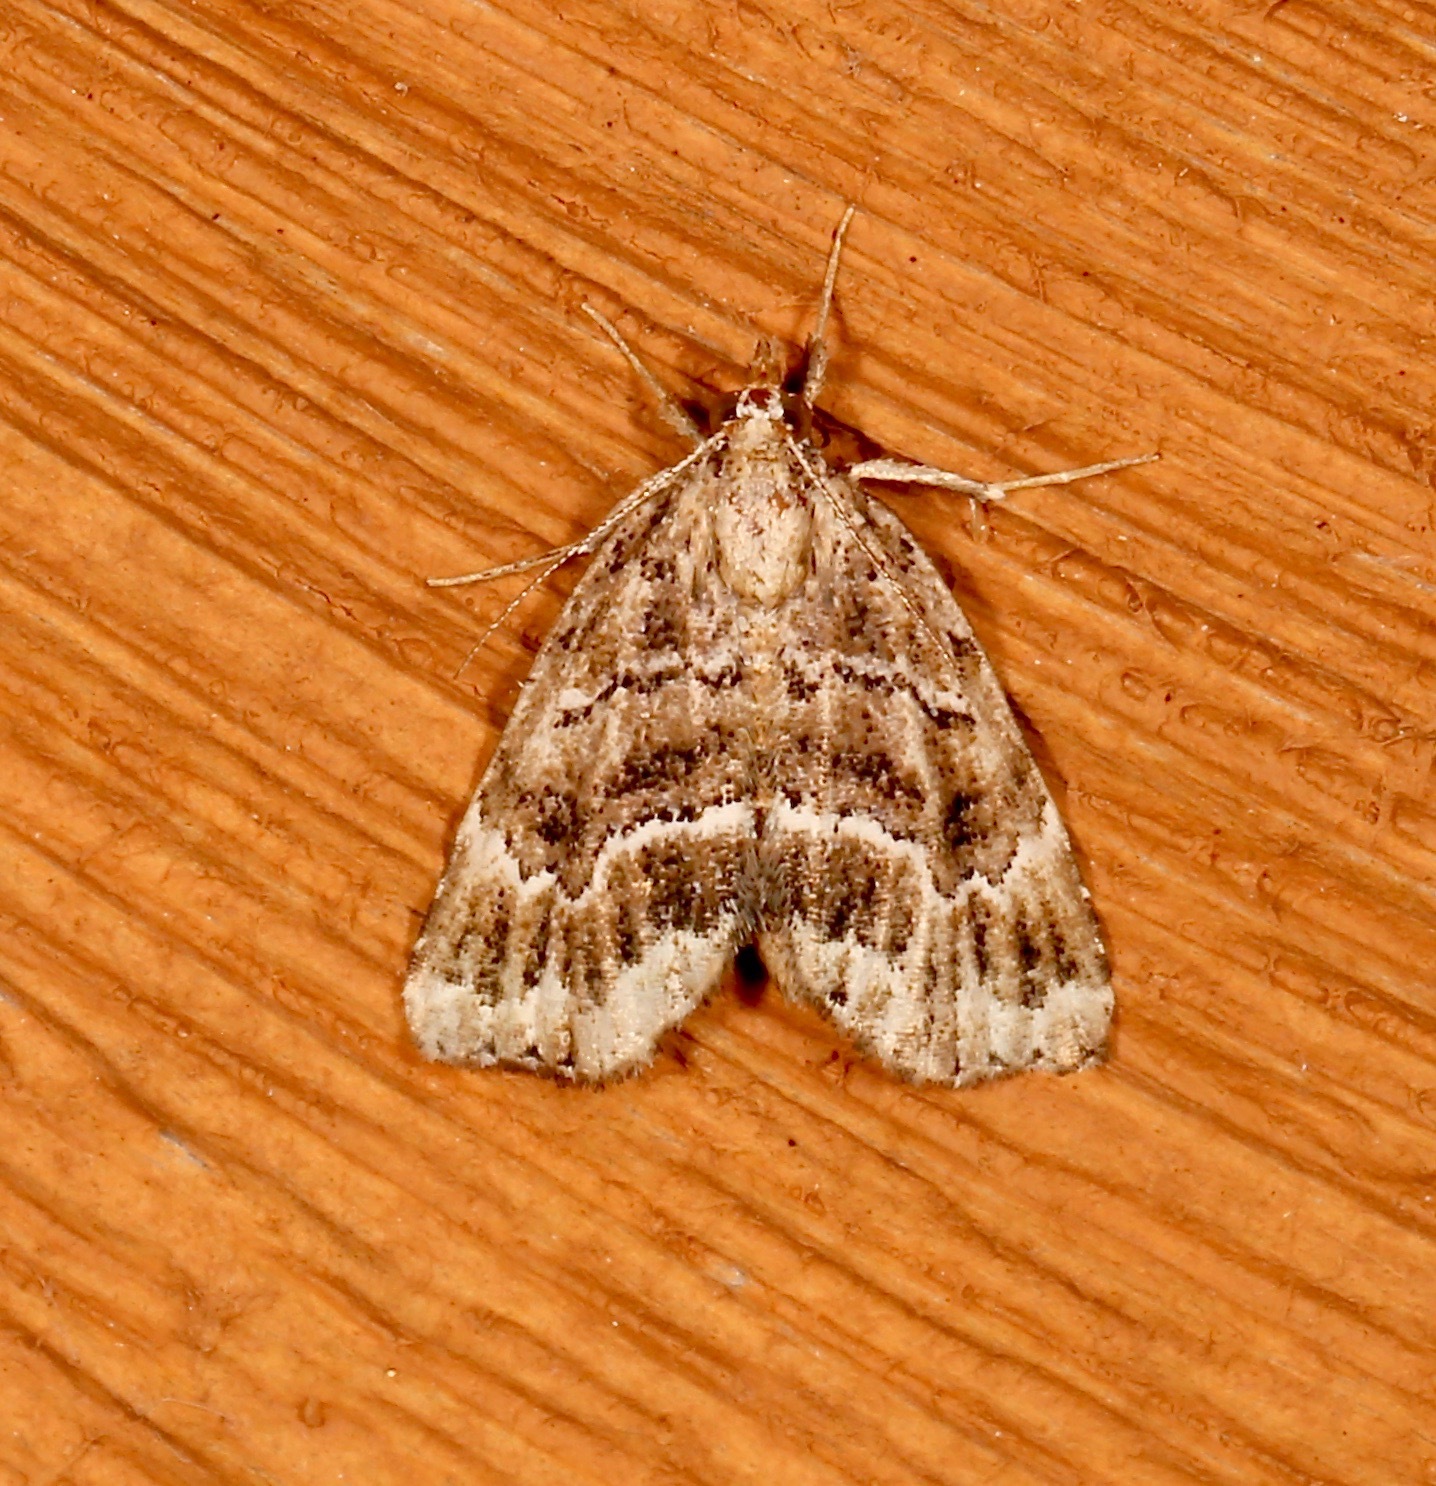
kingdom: Animalia
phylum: Arthropoda
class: Insecta
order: Lepidoptera
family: Erebidae
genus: Cutina
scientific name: Cutina arcuata
